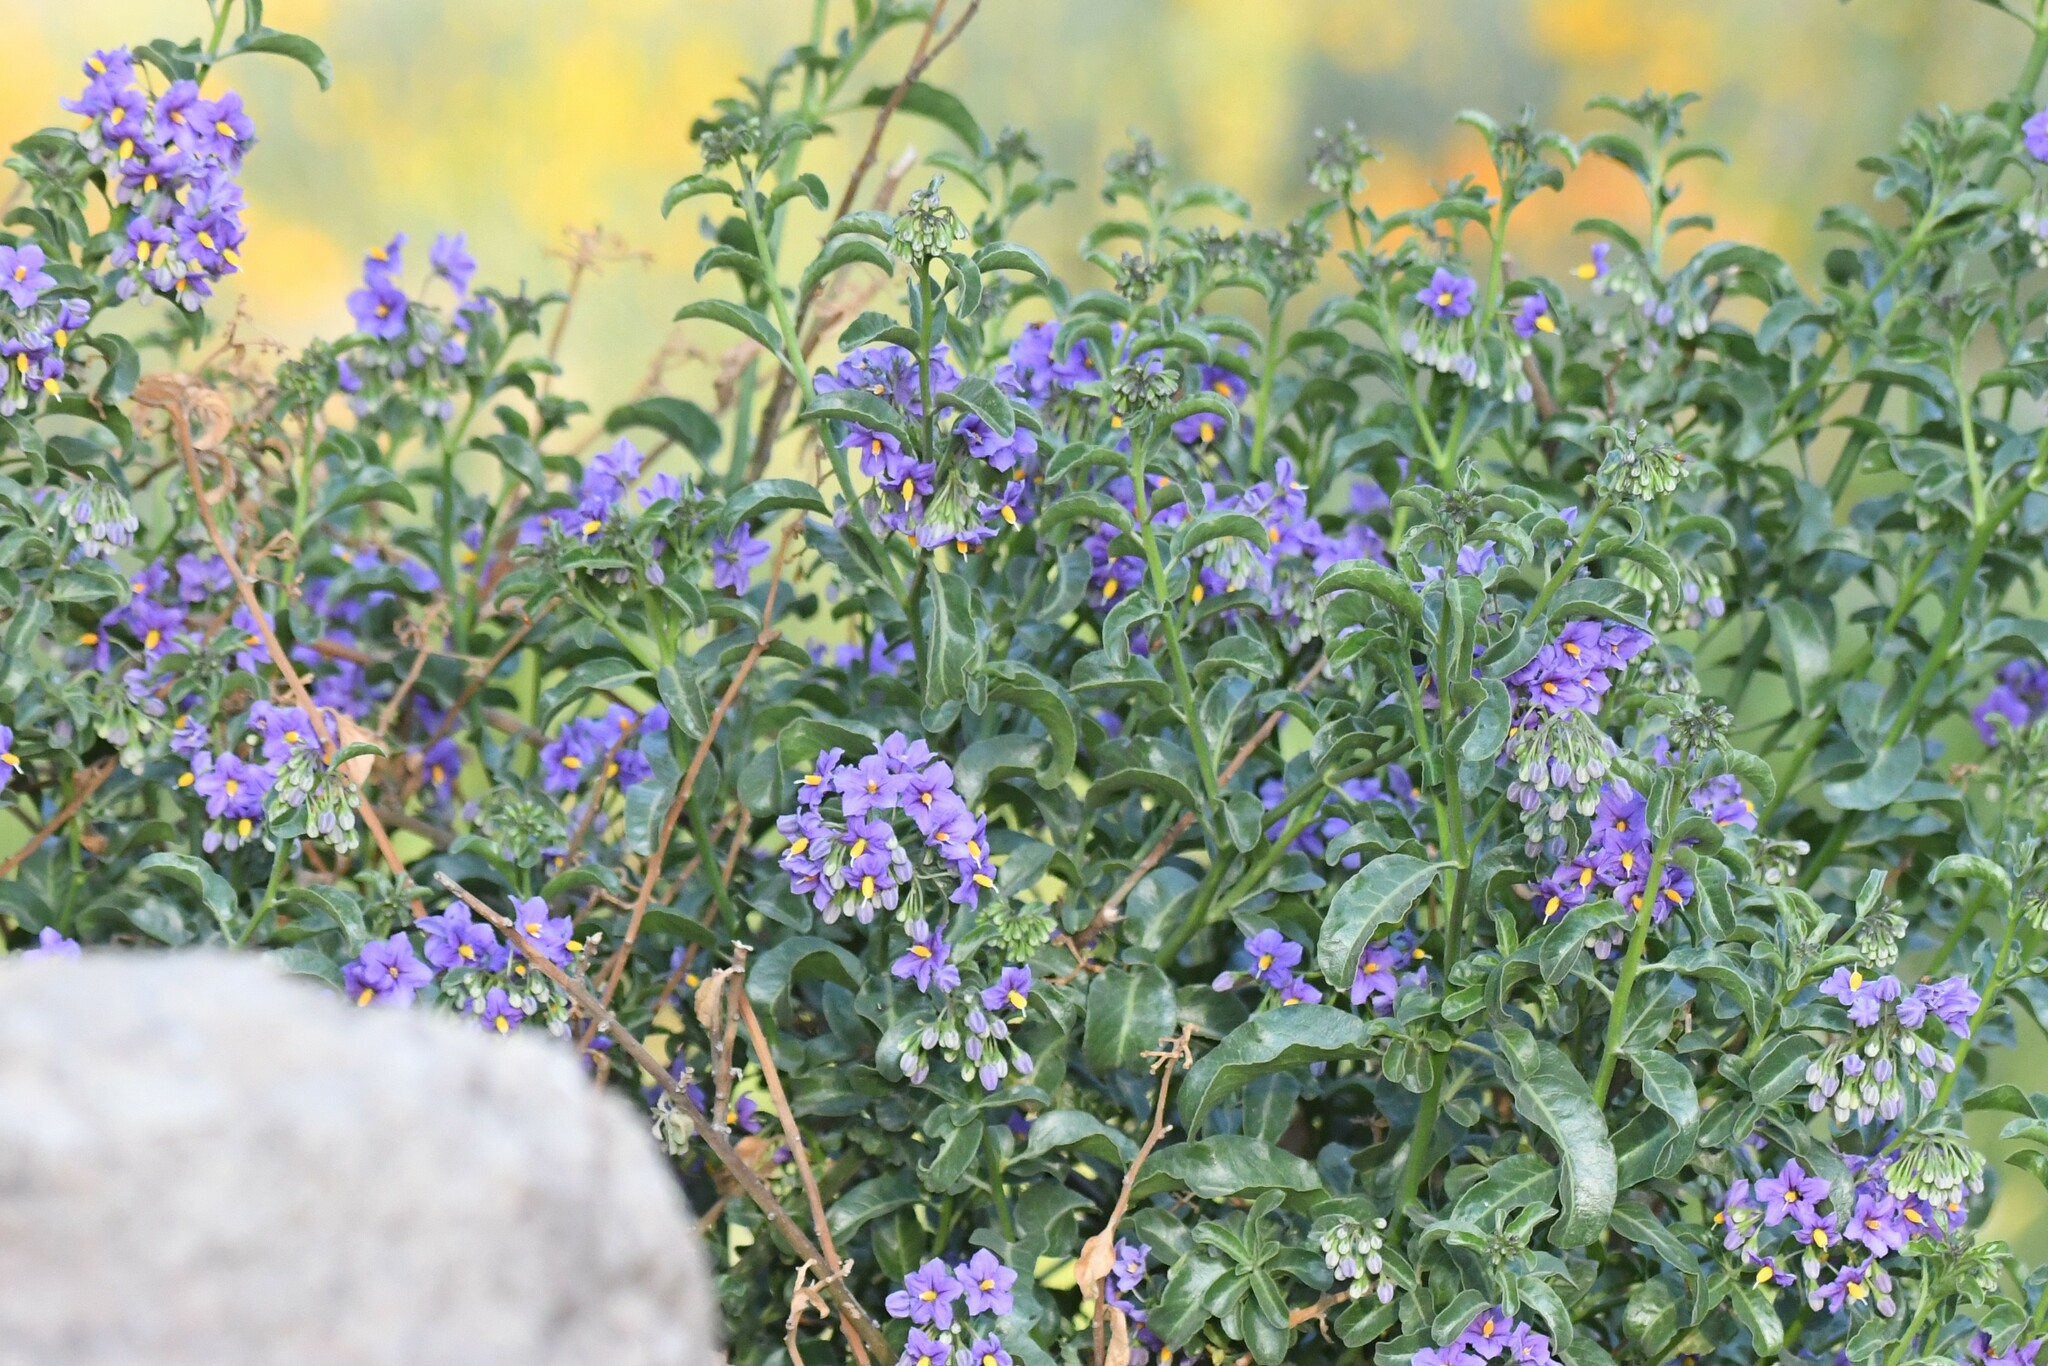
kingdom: Plantae
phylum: Tracheophyta
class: Magnoliopsida
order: Solanales
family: Solanaceae
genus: Solanum
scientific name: Solanum crispum
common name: Chilean nightshade
